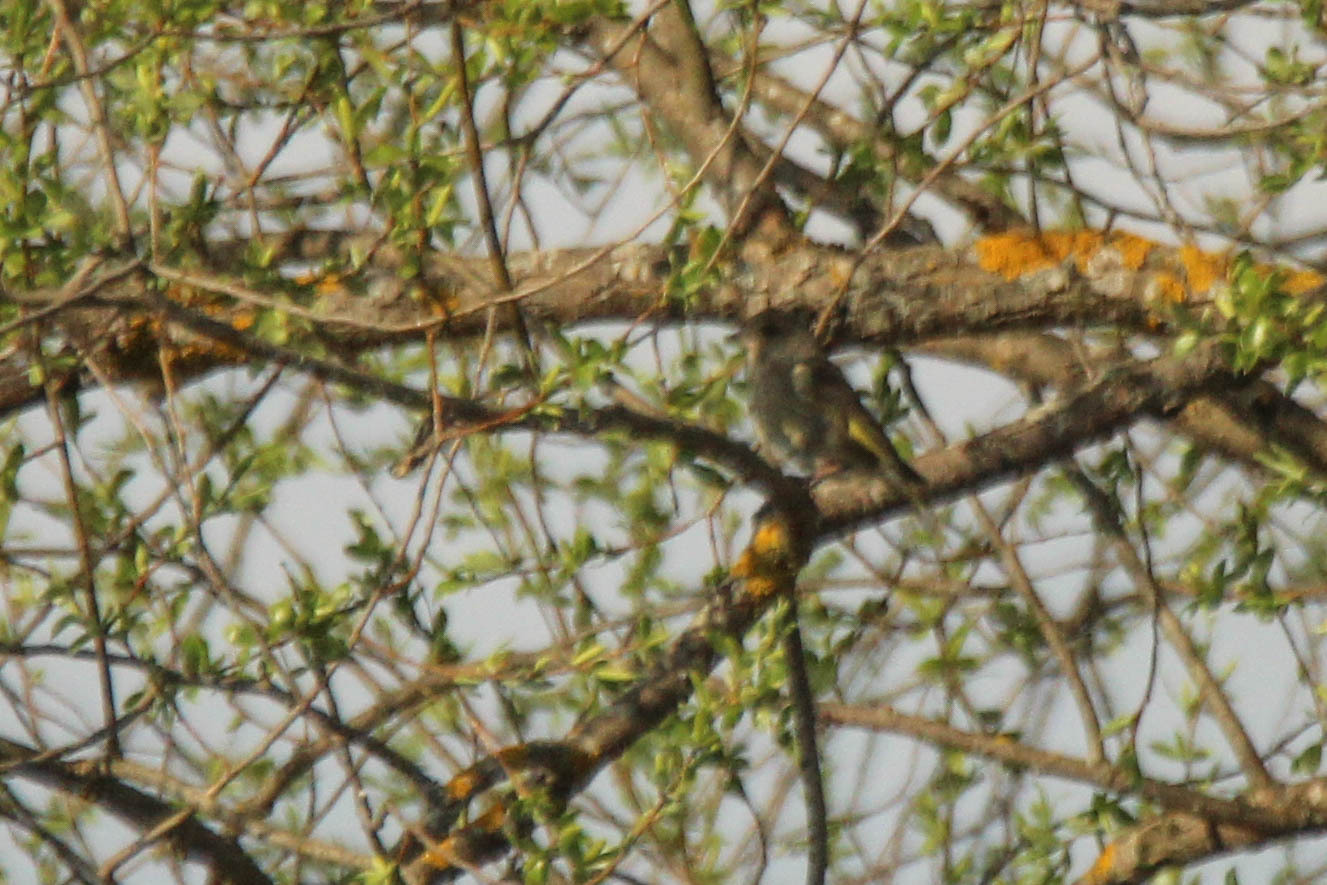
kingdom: Plantae
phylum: Tracheophyta
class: Liliopsida
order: Poales
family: Poaceae
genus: Chloris
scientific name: Chloris chloris
